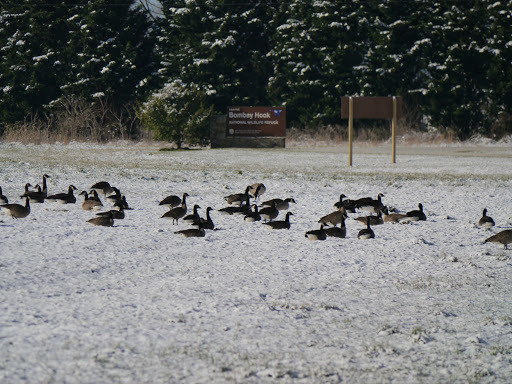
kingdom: Animalia
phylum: Chordata
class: Aves
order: Anseriformes
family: Anatidae
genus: Branta
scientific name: Branta canadensis
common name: Canada goose
